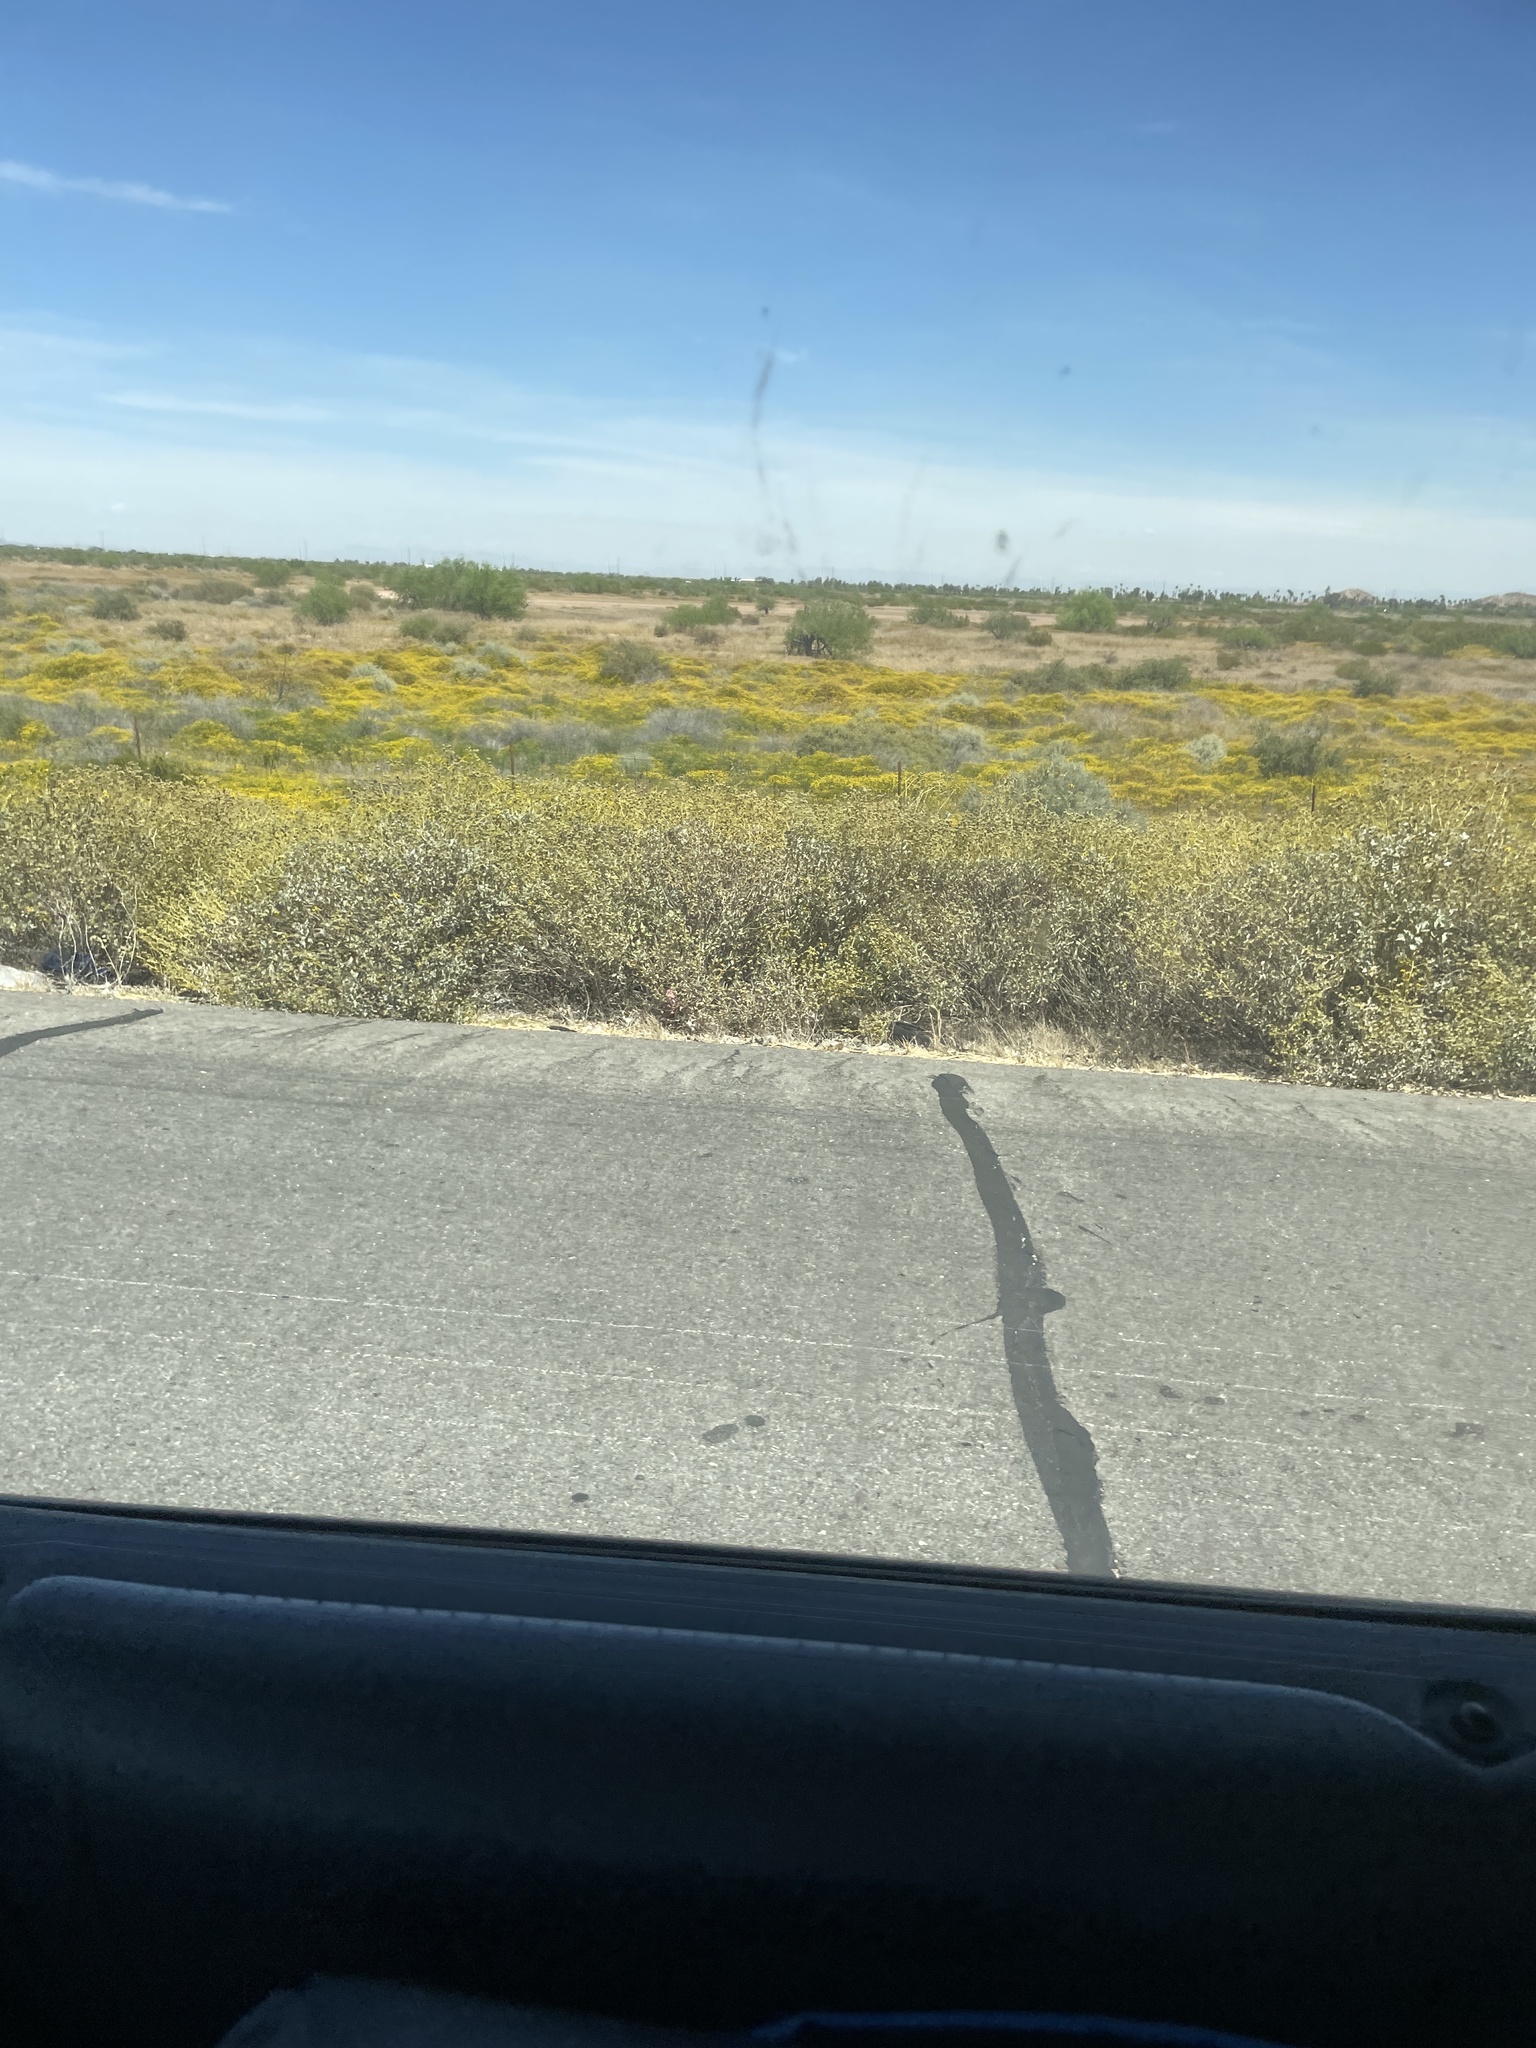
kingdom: Plantae
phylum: Tracheophyta
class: Magnoliopsida
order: Asterales
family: Asteraceae
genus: Oncosiphon
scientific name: Oncosiphon pilulifer
